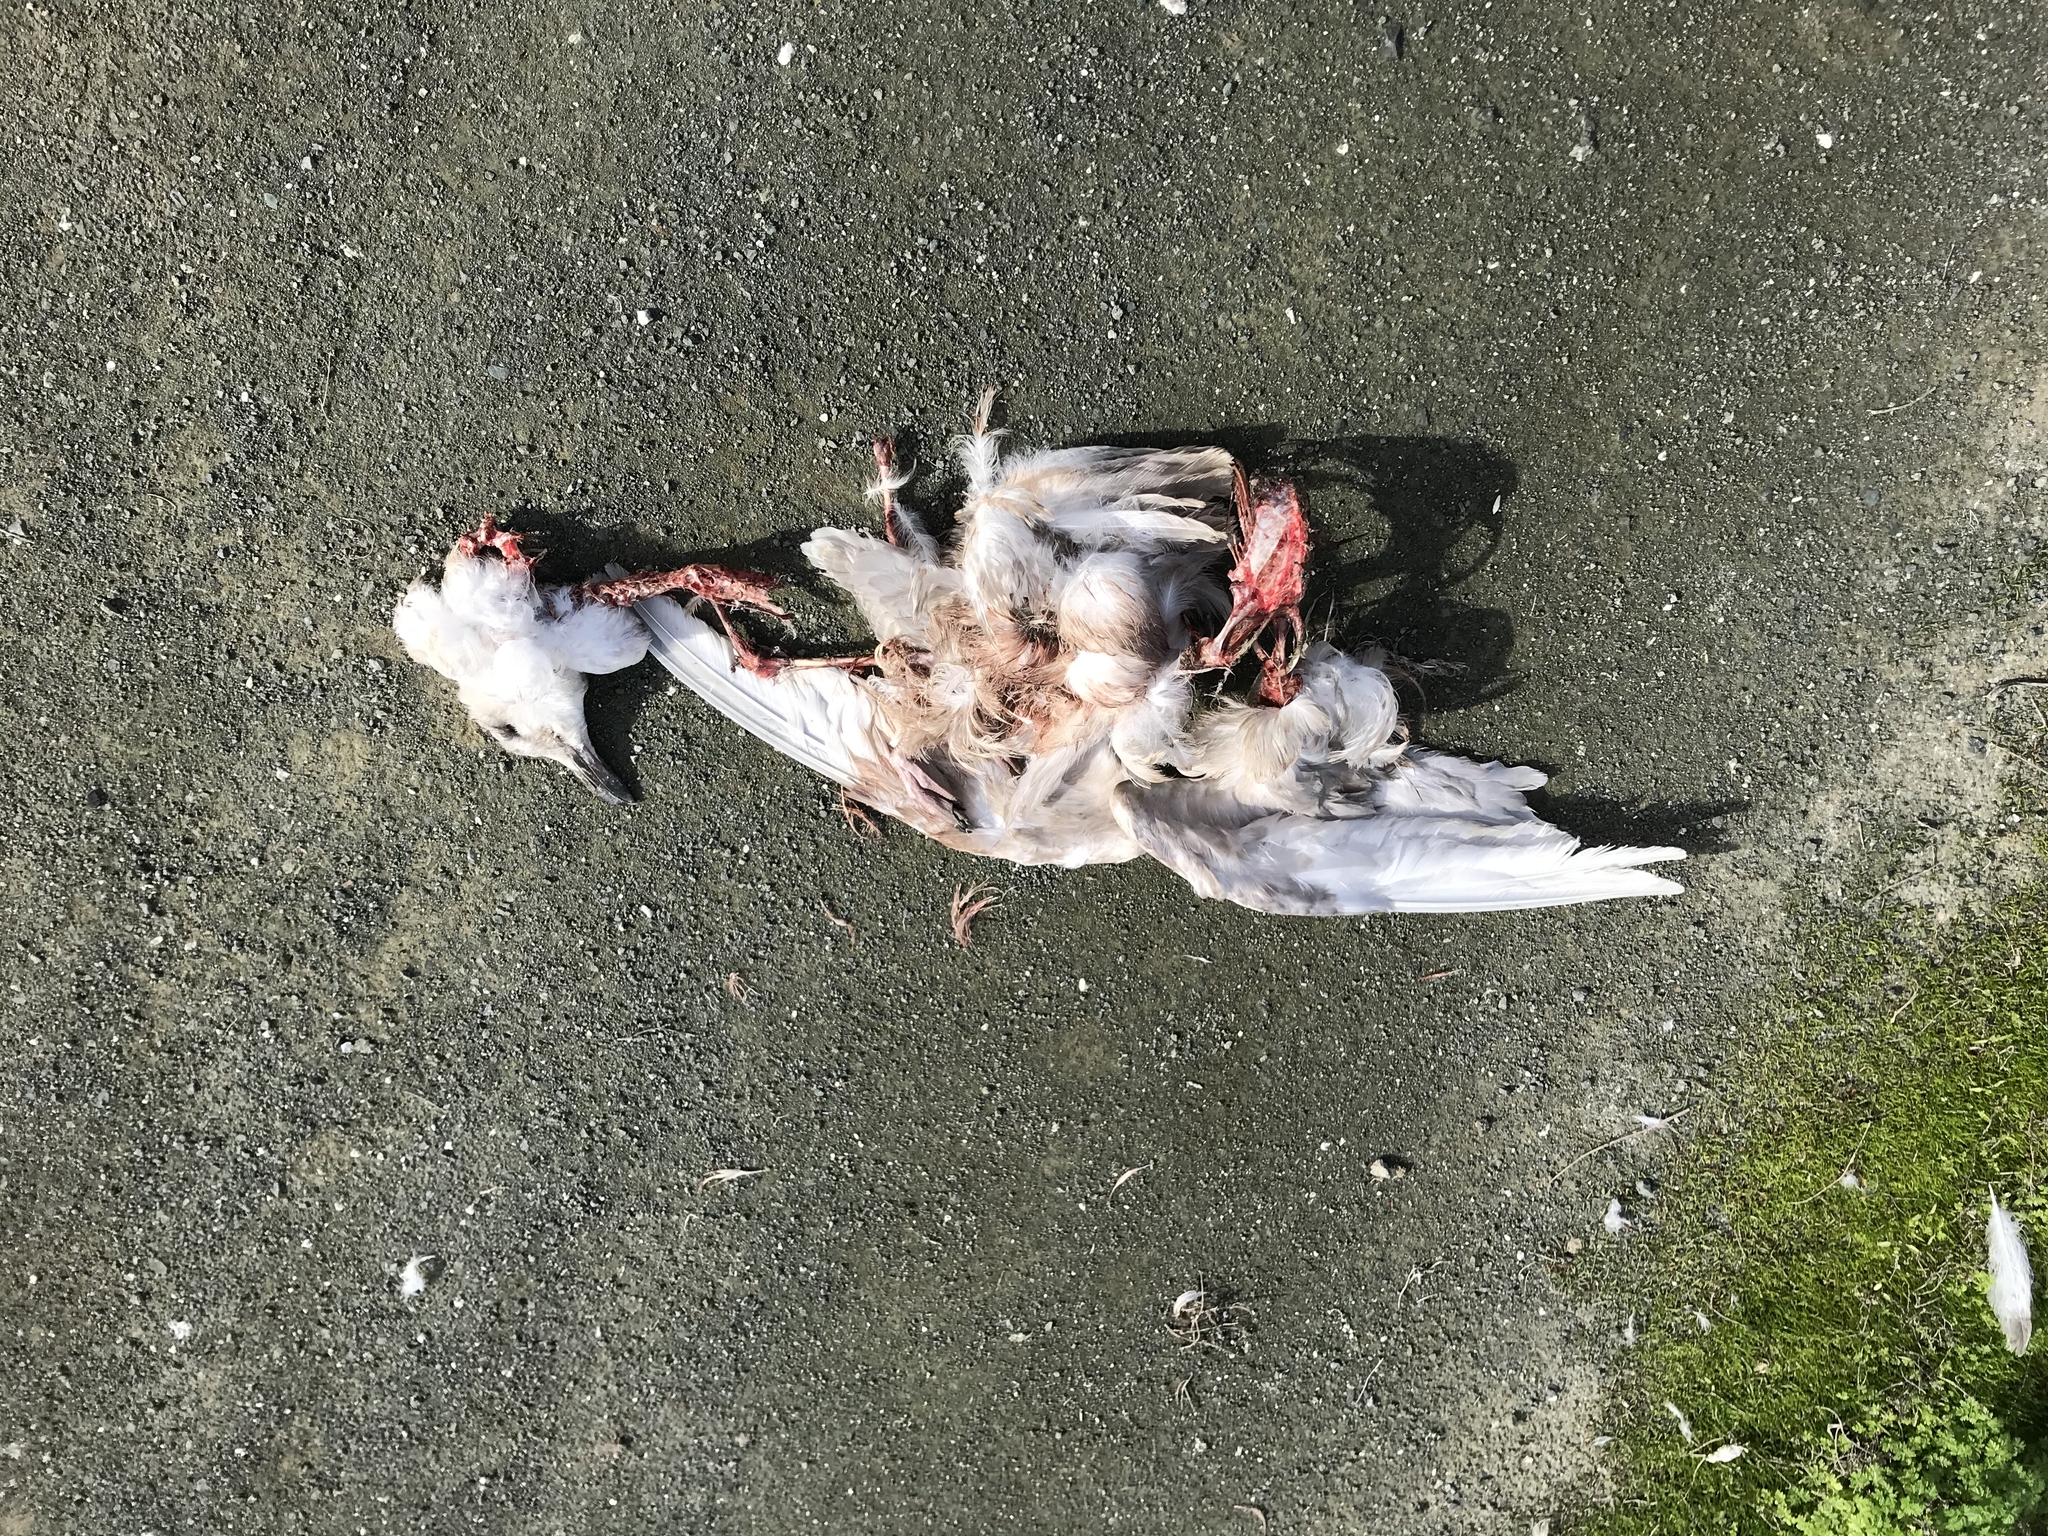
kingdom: Animalia
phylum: Chordata
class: Aves
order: Charadriiformes
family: Laridae
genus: Larus
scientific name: Larus glaucescens
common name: Glaucous-winged gull
